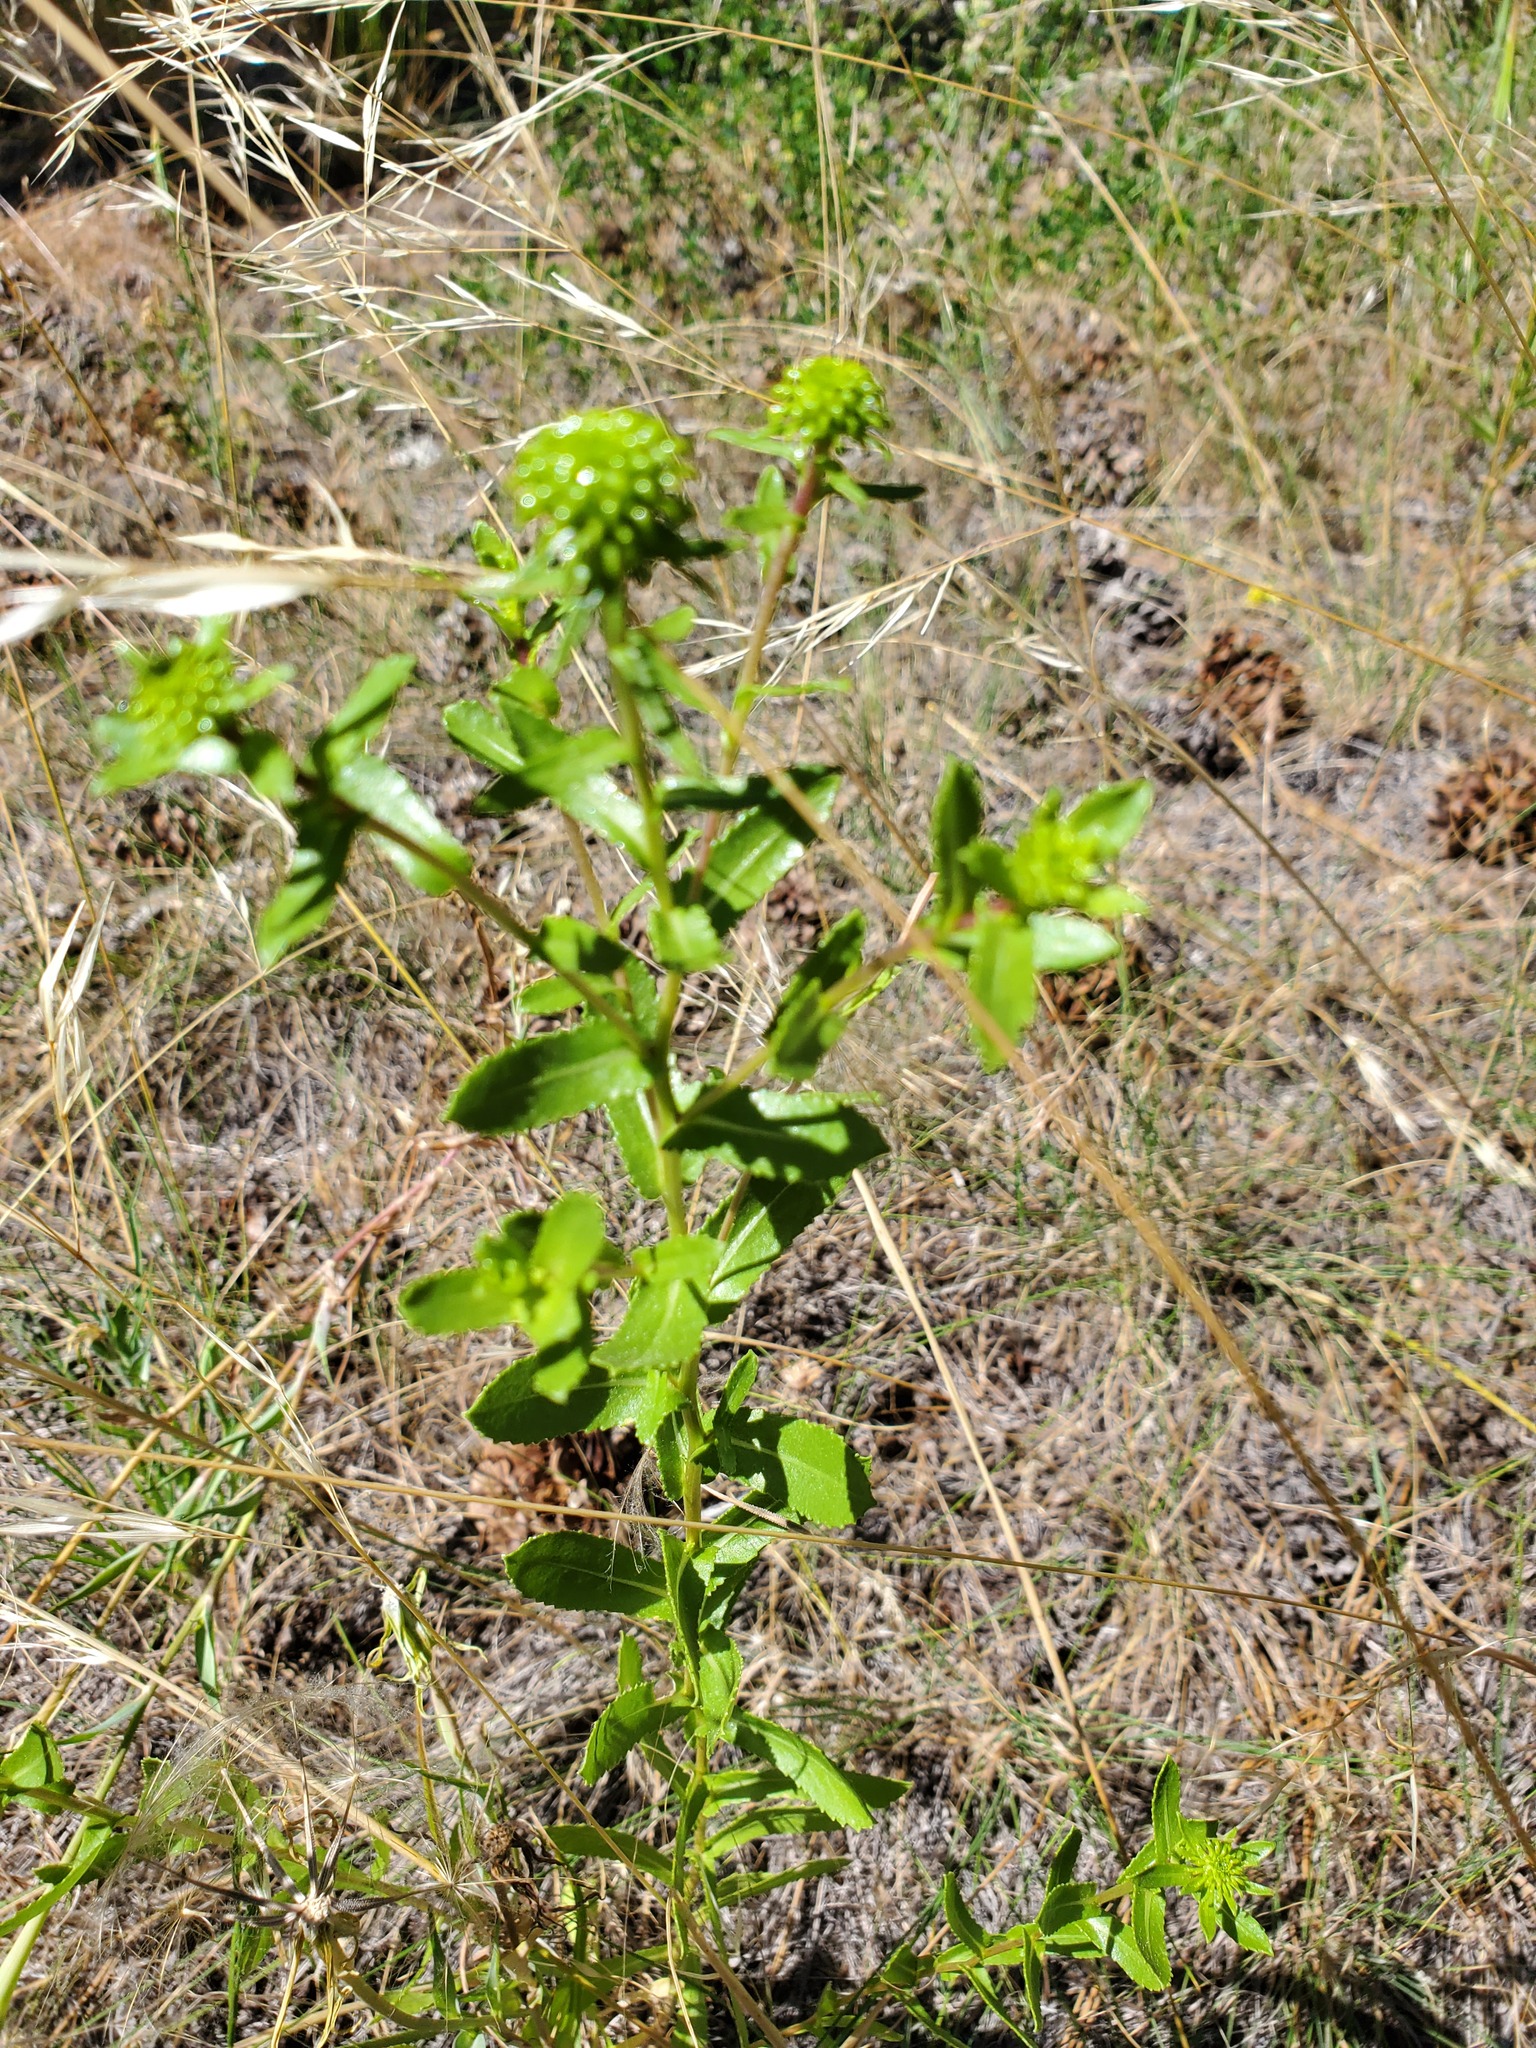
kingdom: Plantae
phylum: Tracheophyta
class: Magnoliopsida
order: Asterales
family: Asteraceae
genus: Grindelia
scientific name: Grindelia squarrosa
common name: Curly-cup gumweed
